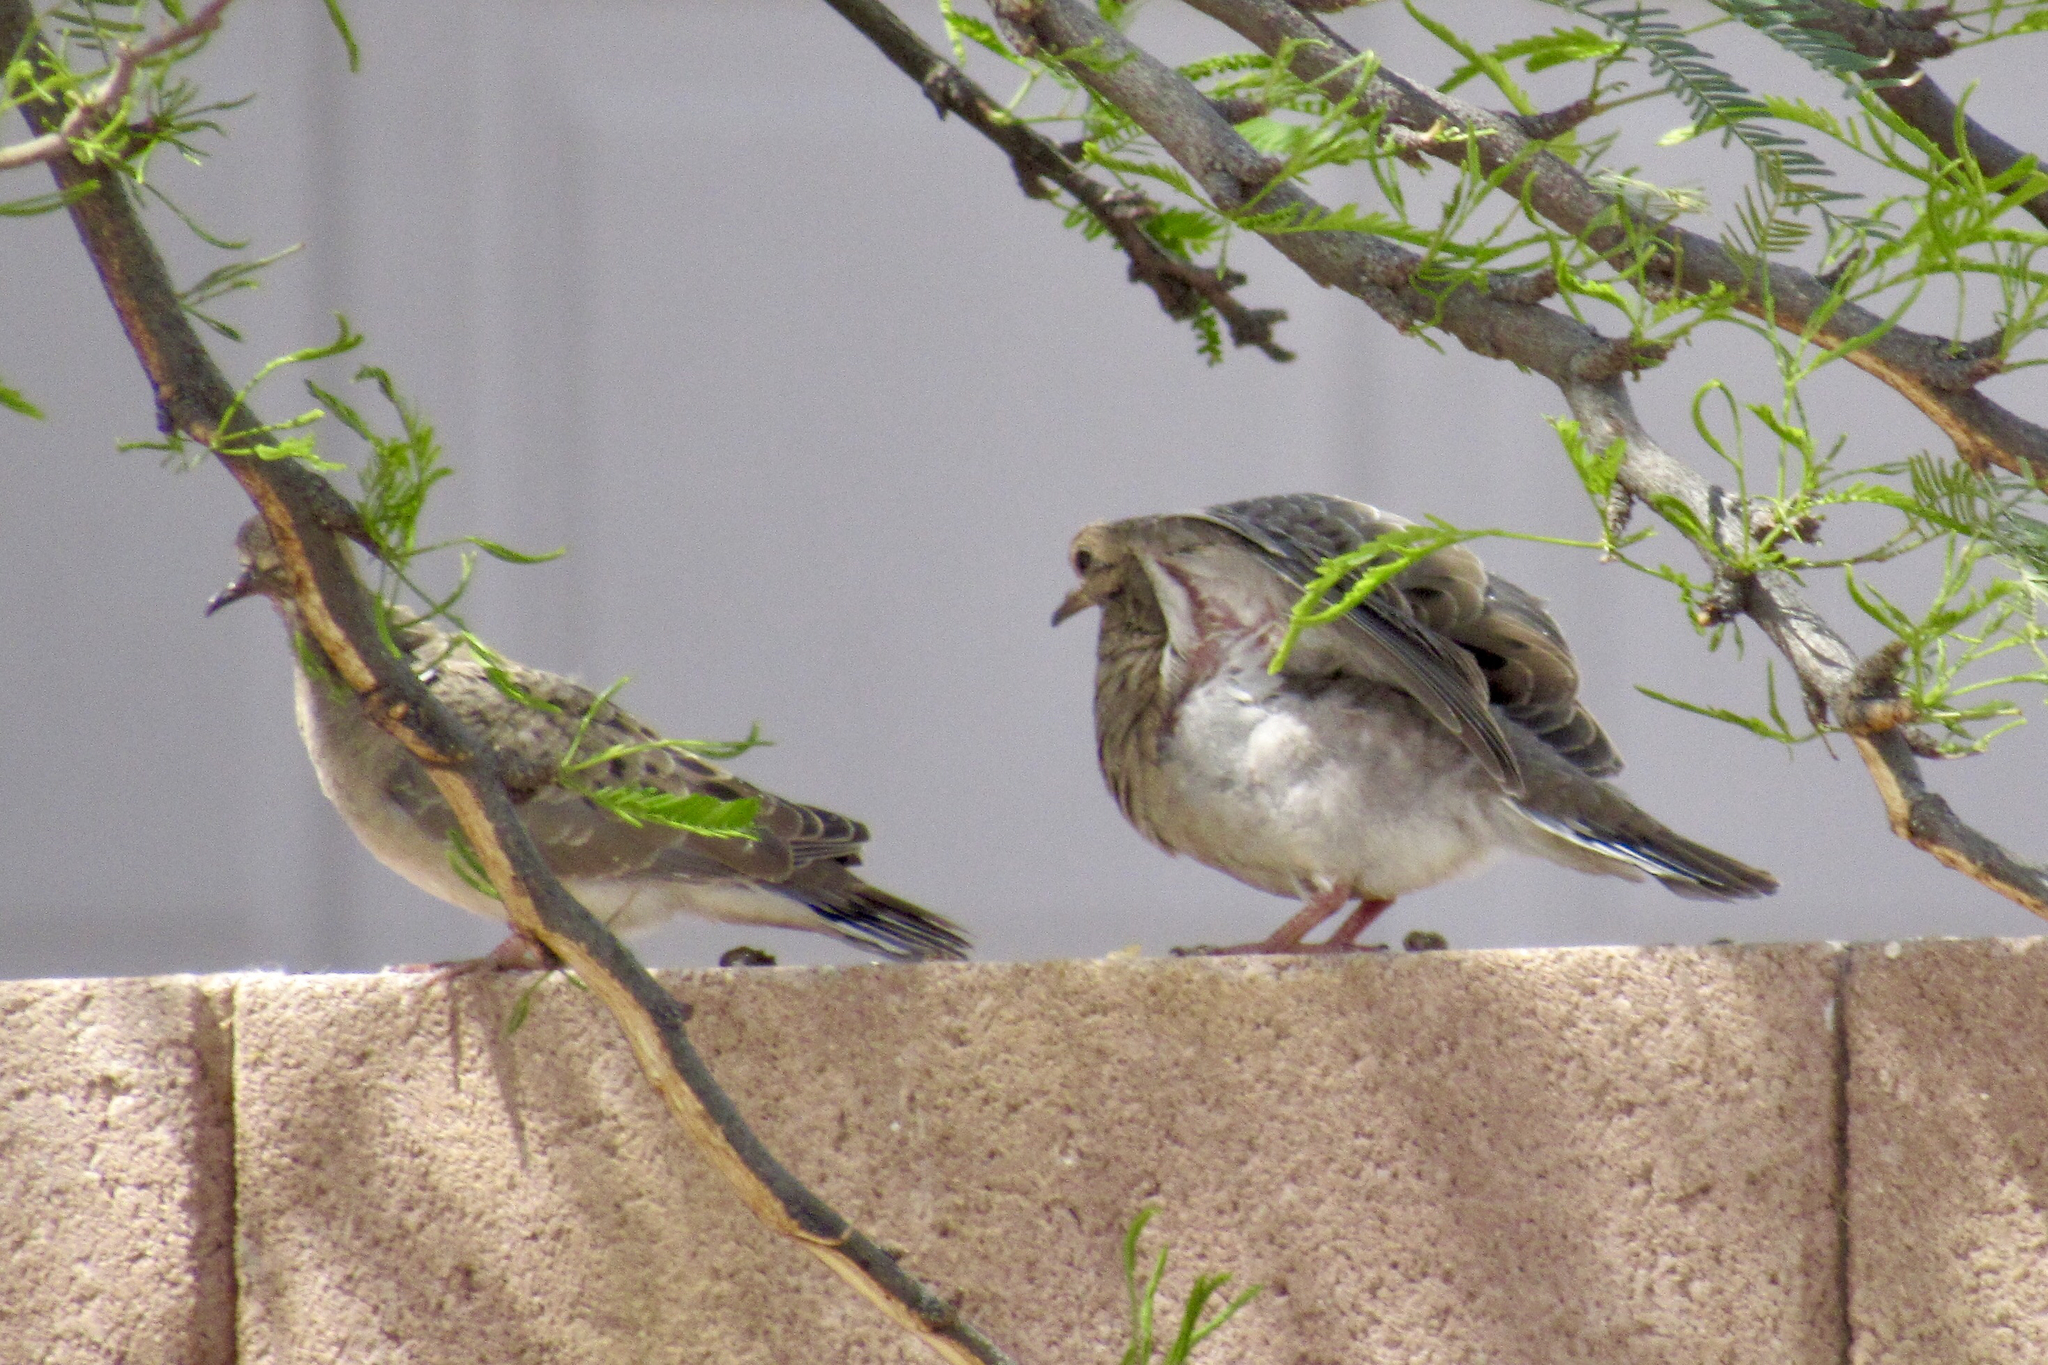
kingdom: Animalia
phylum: Chordata
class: Aves
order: Columbiformes
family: Columbidae
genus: Zenaida
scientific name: Zenaida macroura
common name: Mourning dove
